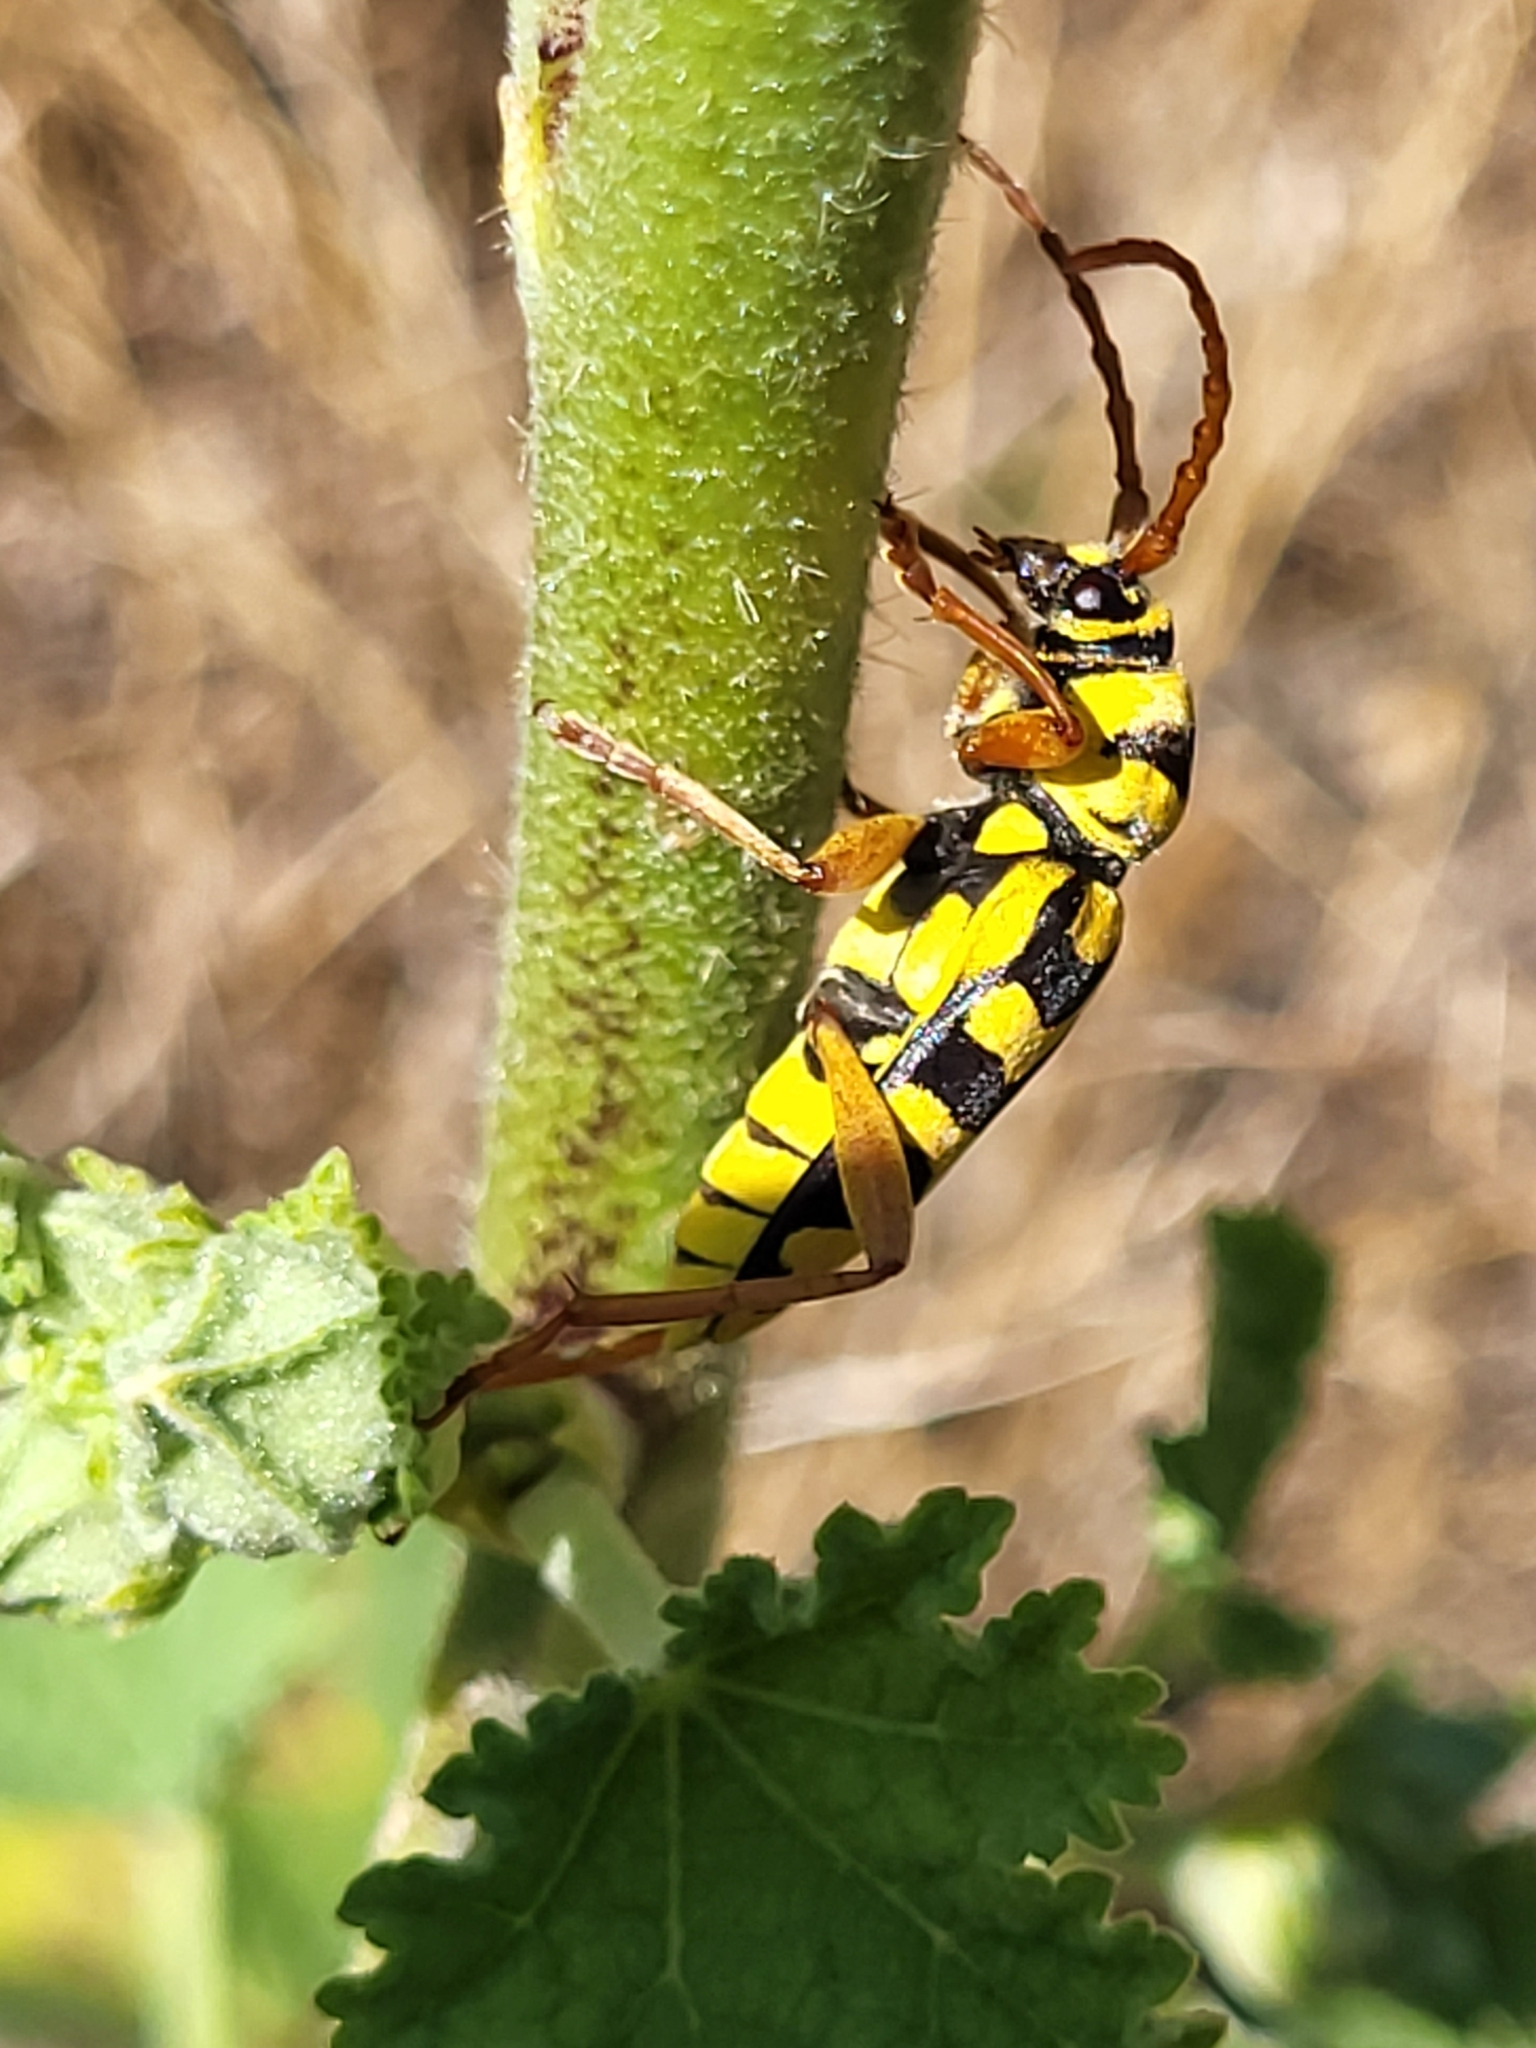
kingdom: Animalia
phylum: Arthropoda
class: Insecta
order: Coleoptera
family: Cerambycidae
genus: Neoplagionotus
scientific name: Neoplagionotus bobelayei
